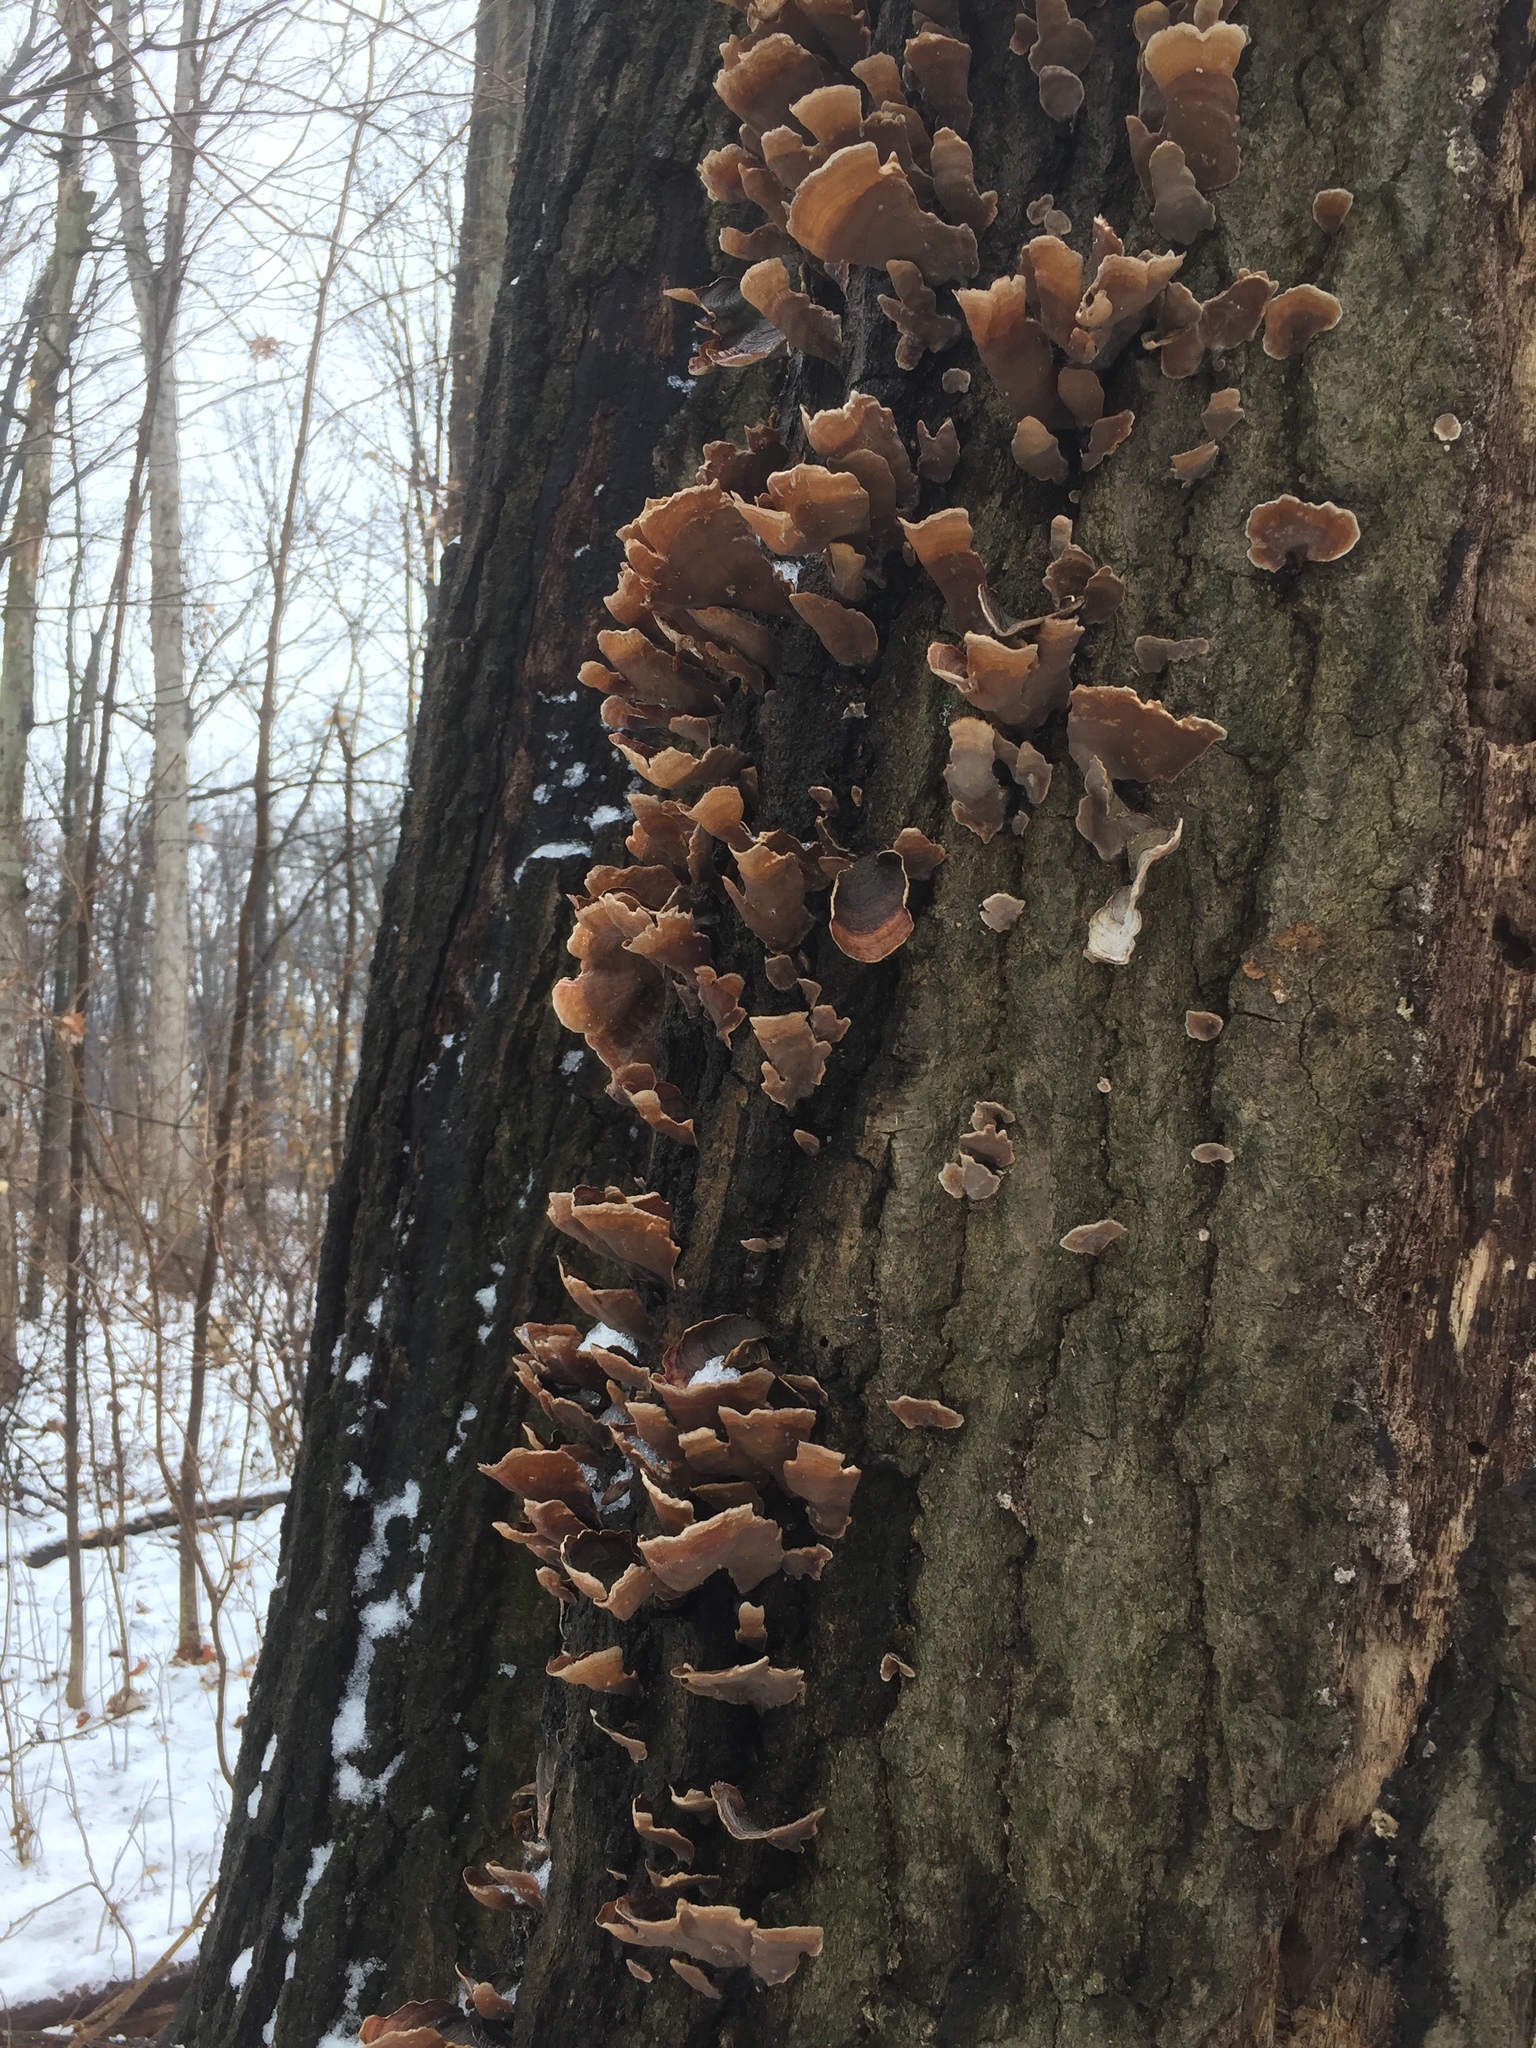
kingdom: Fungi
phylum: Basidiomycota
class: Agaricomycetes
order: Russulales
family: Stereaceae
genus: Stereum
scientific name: Stereum ostrea
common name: False turkeytail
